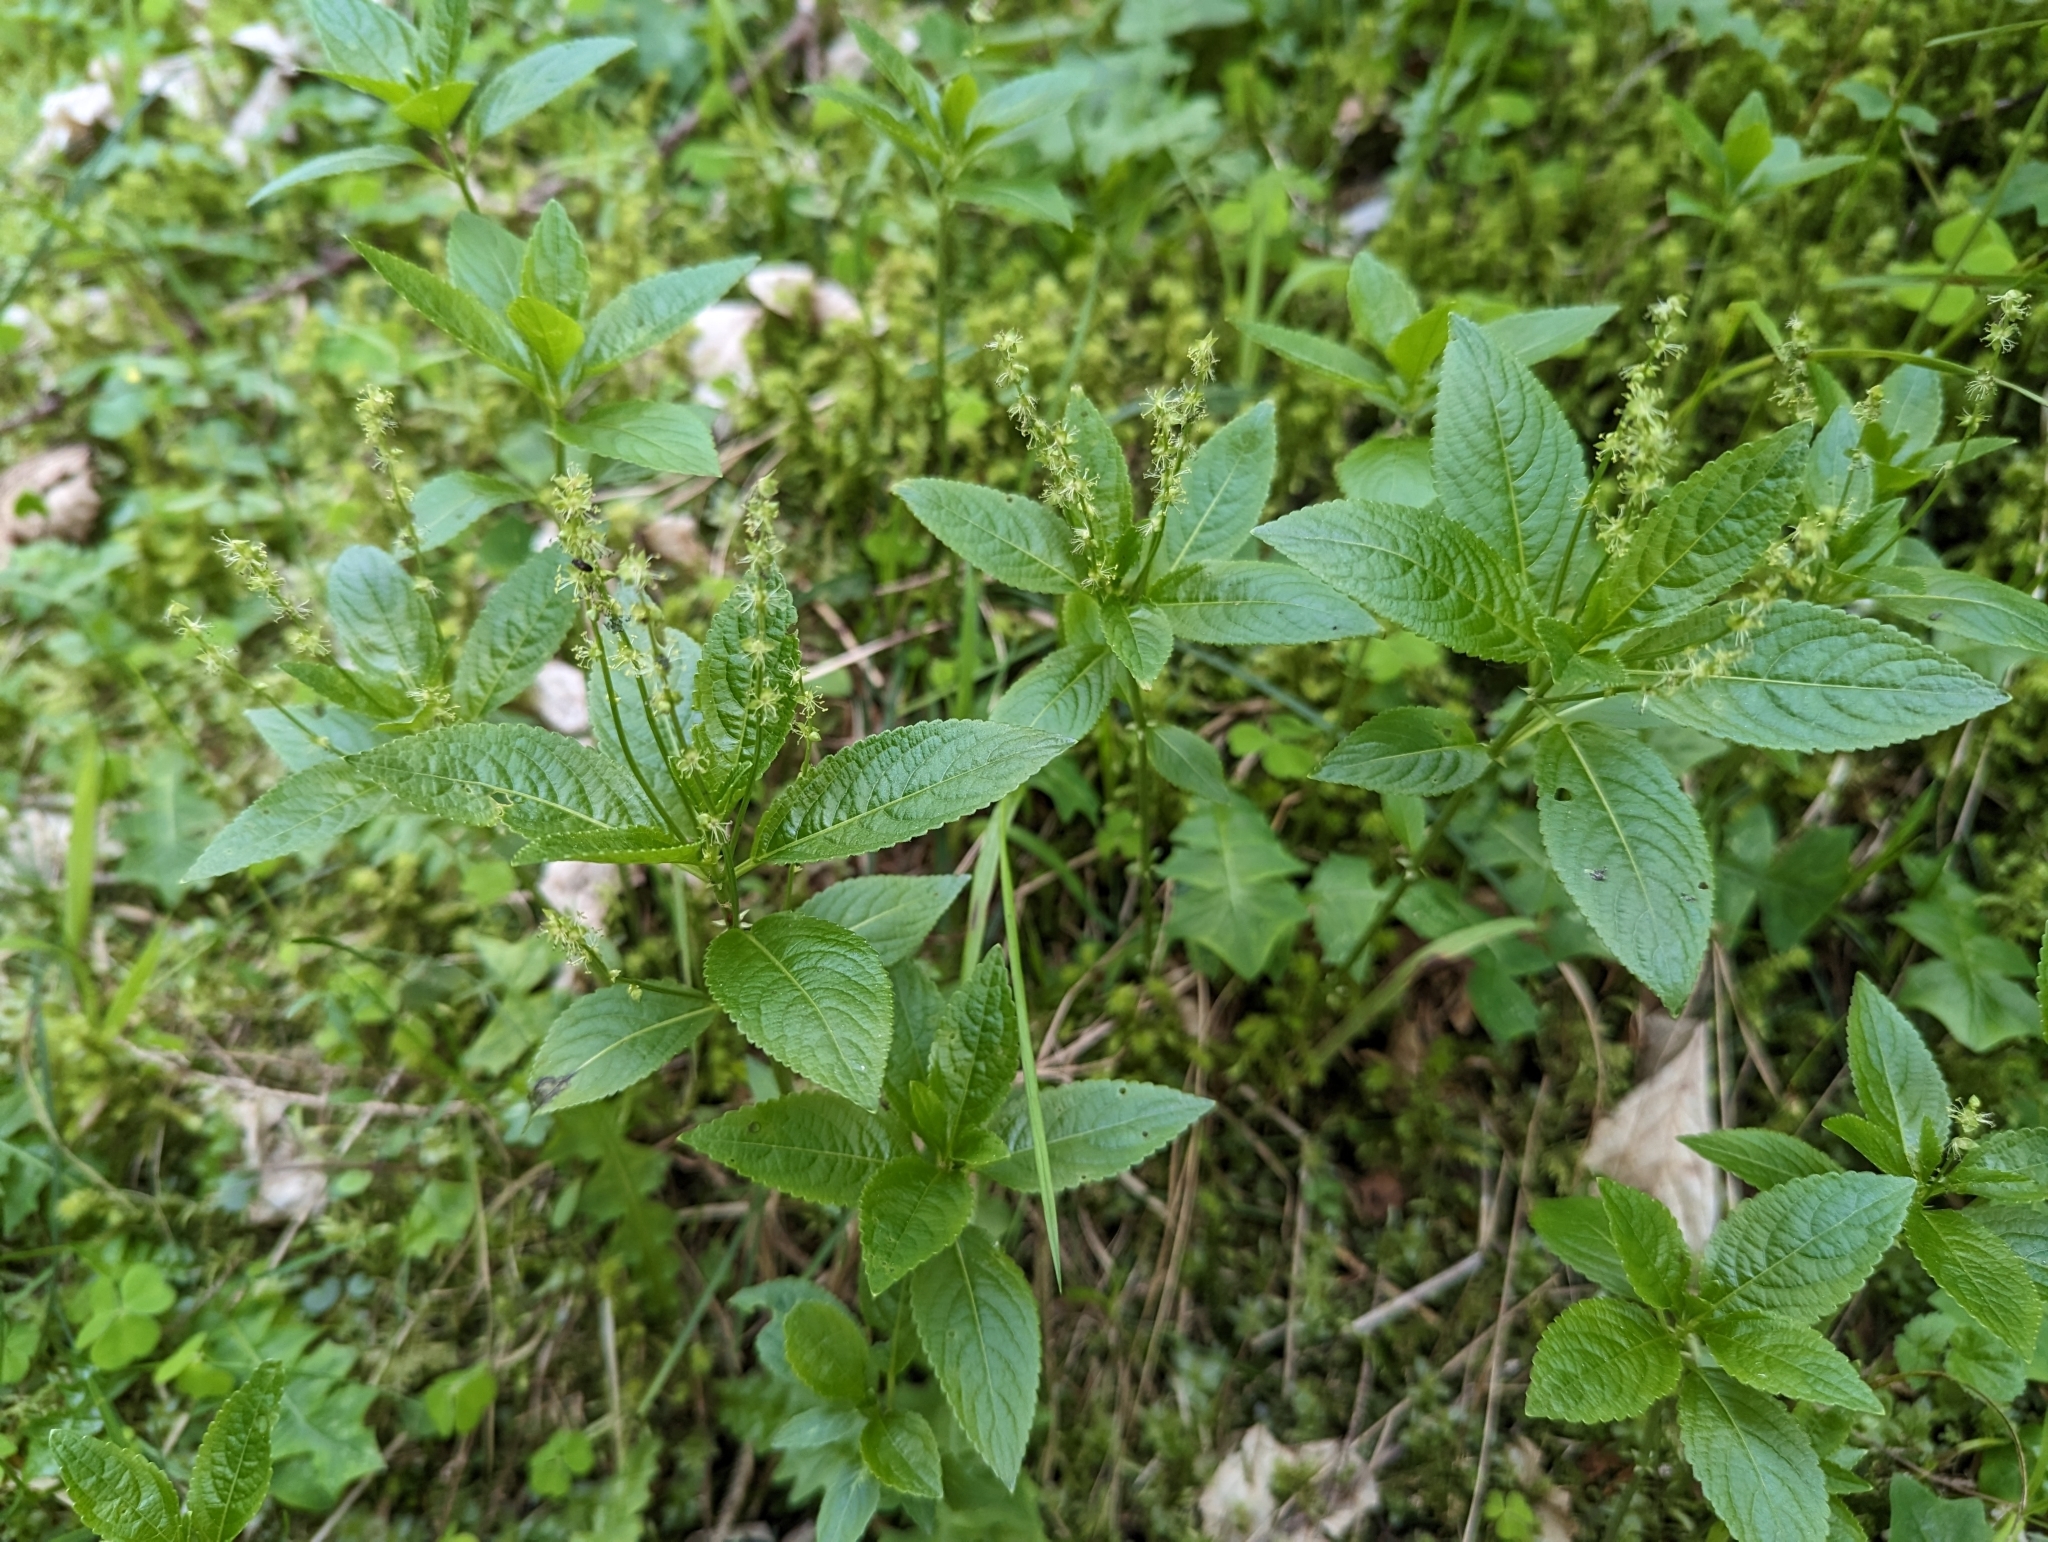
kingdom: Plantae
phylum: Tracheophyta
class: Magnoliopsida
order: Malpighiales
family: Euphorbiaceae
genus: Mercurialis
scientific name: Mercurialis perennis
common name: Dog mercury
